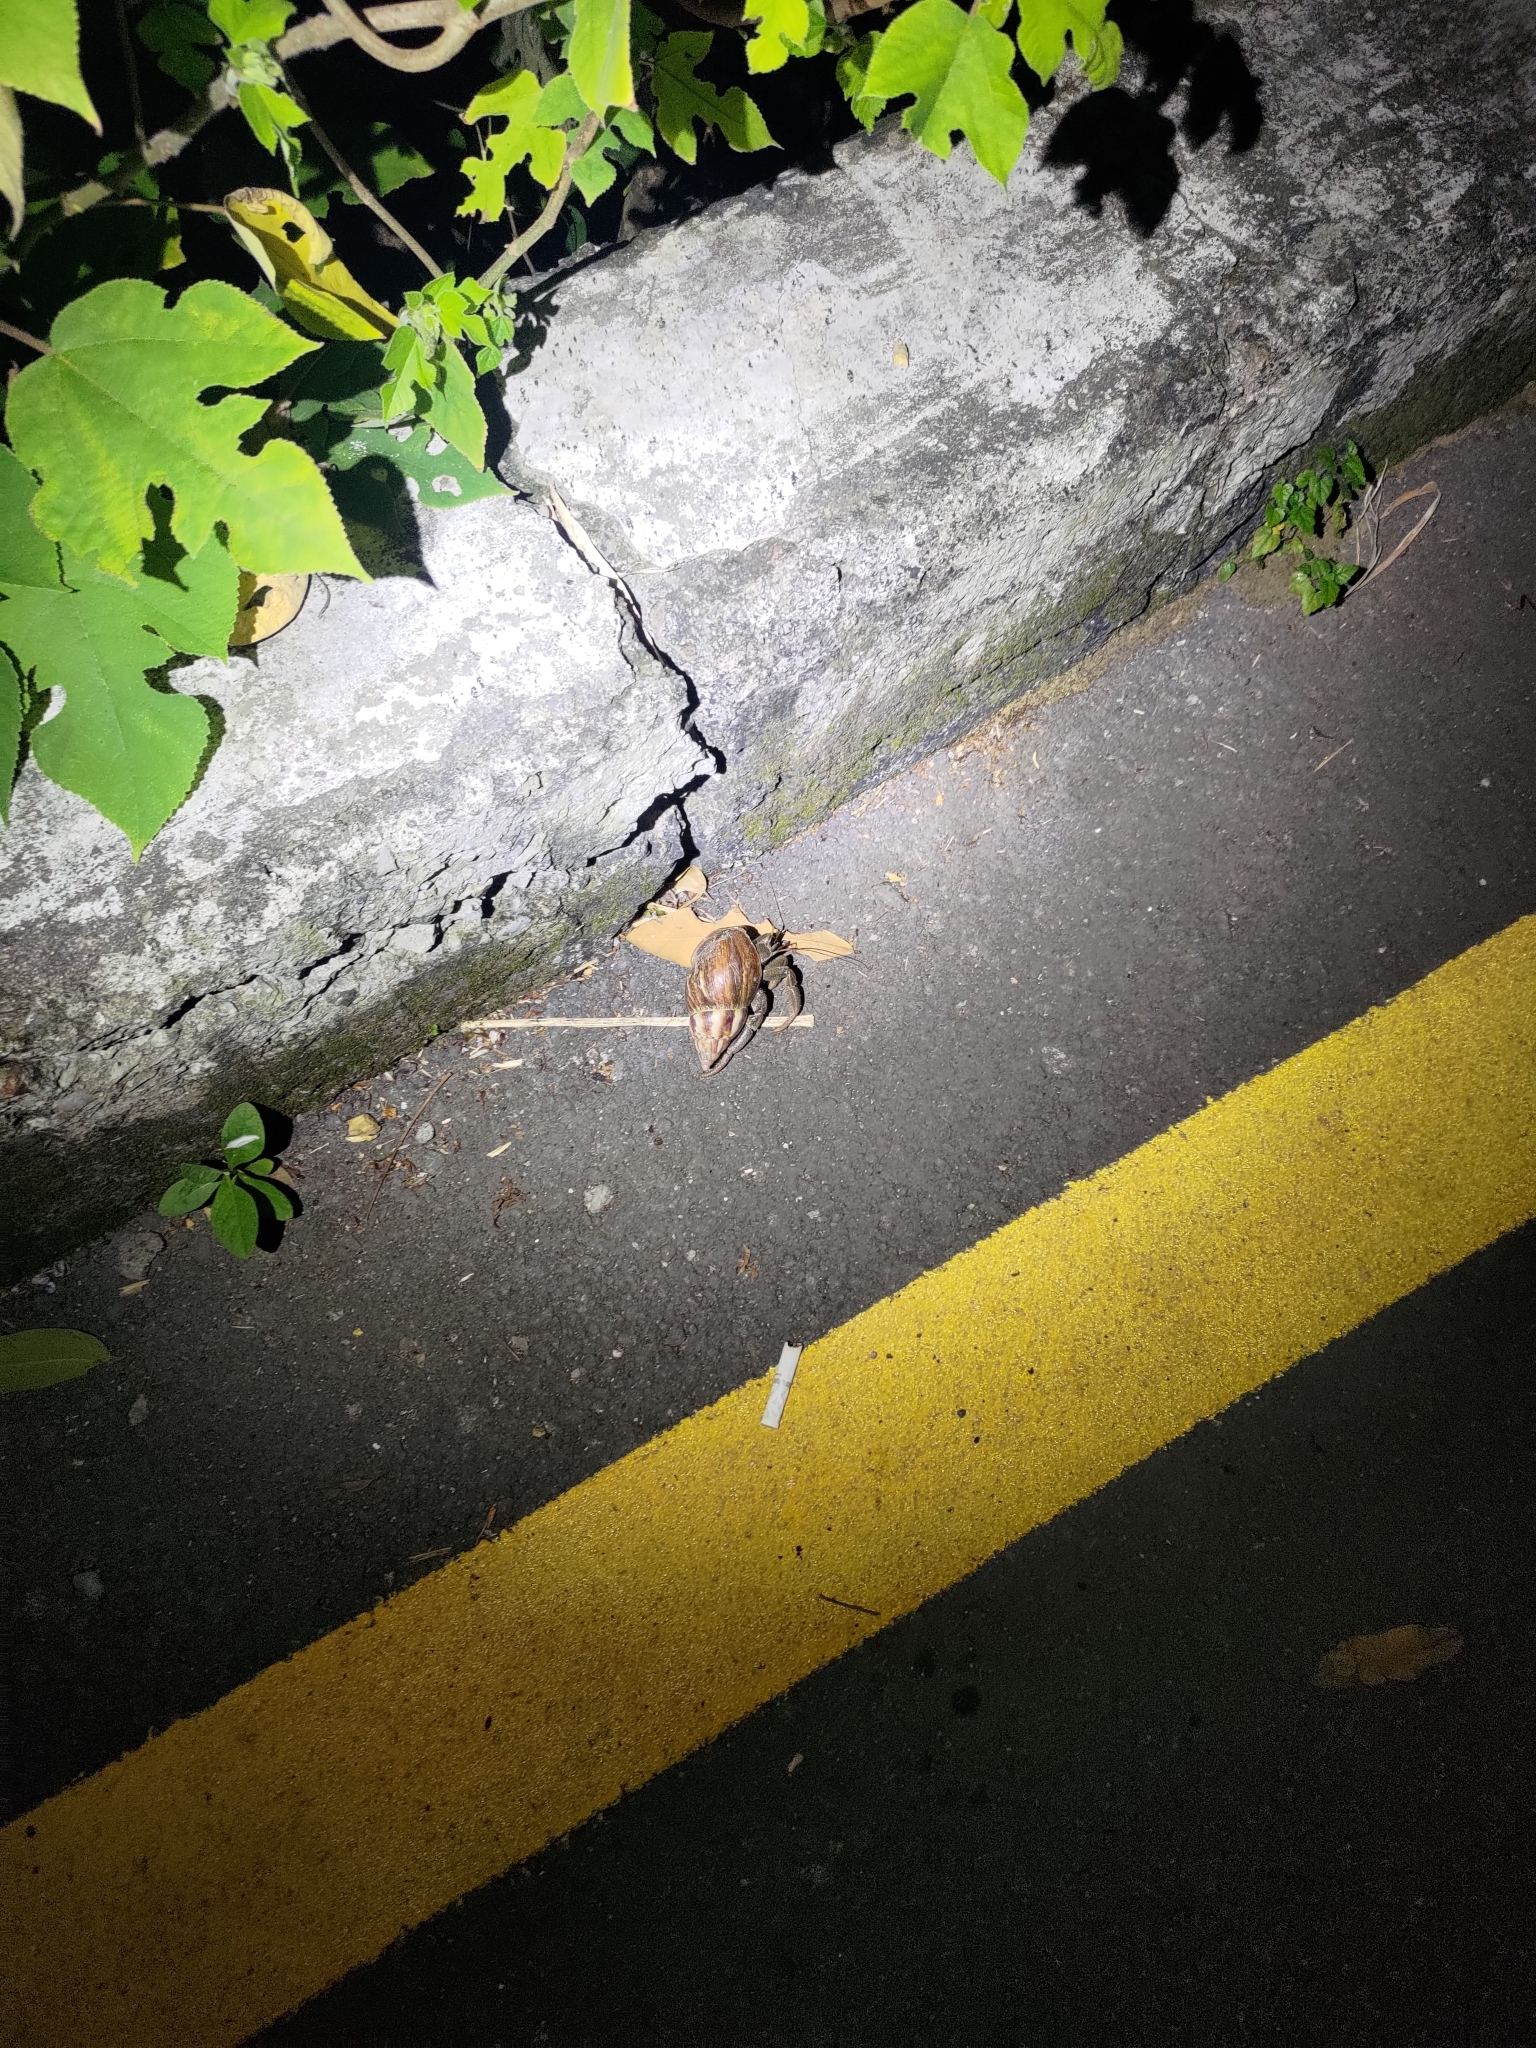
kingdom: Animalia
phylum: Arthropoda
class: Malacostraca
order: Decapoda
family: Coenobitidae
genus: Coenobita
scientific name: Coenobita cavipes
